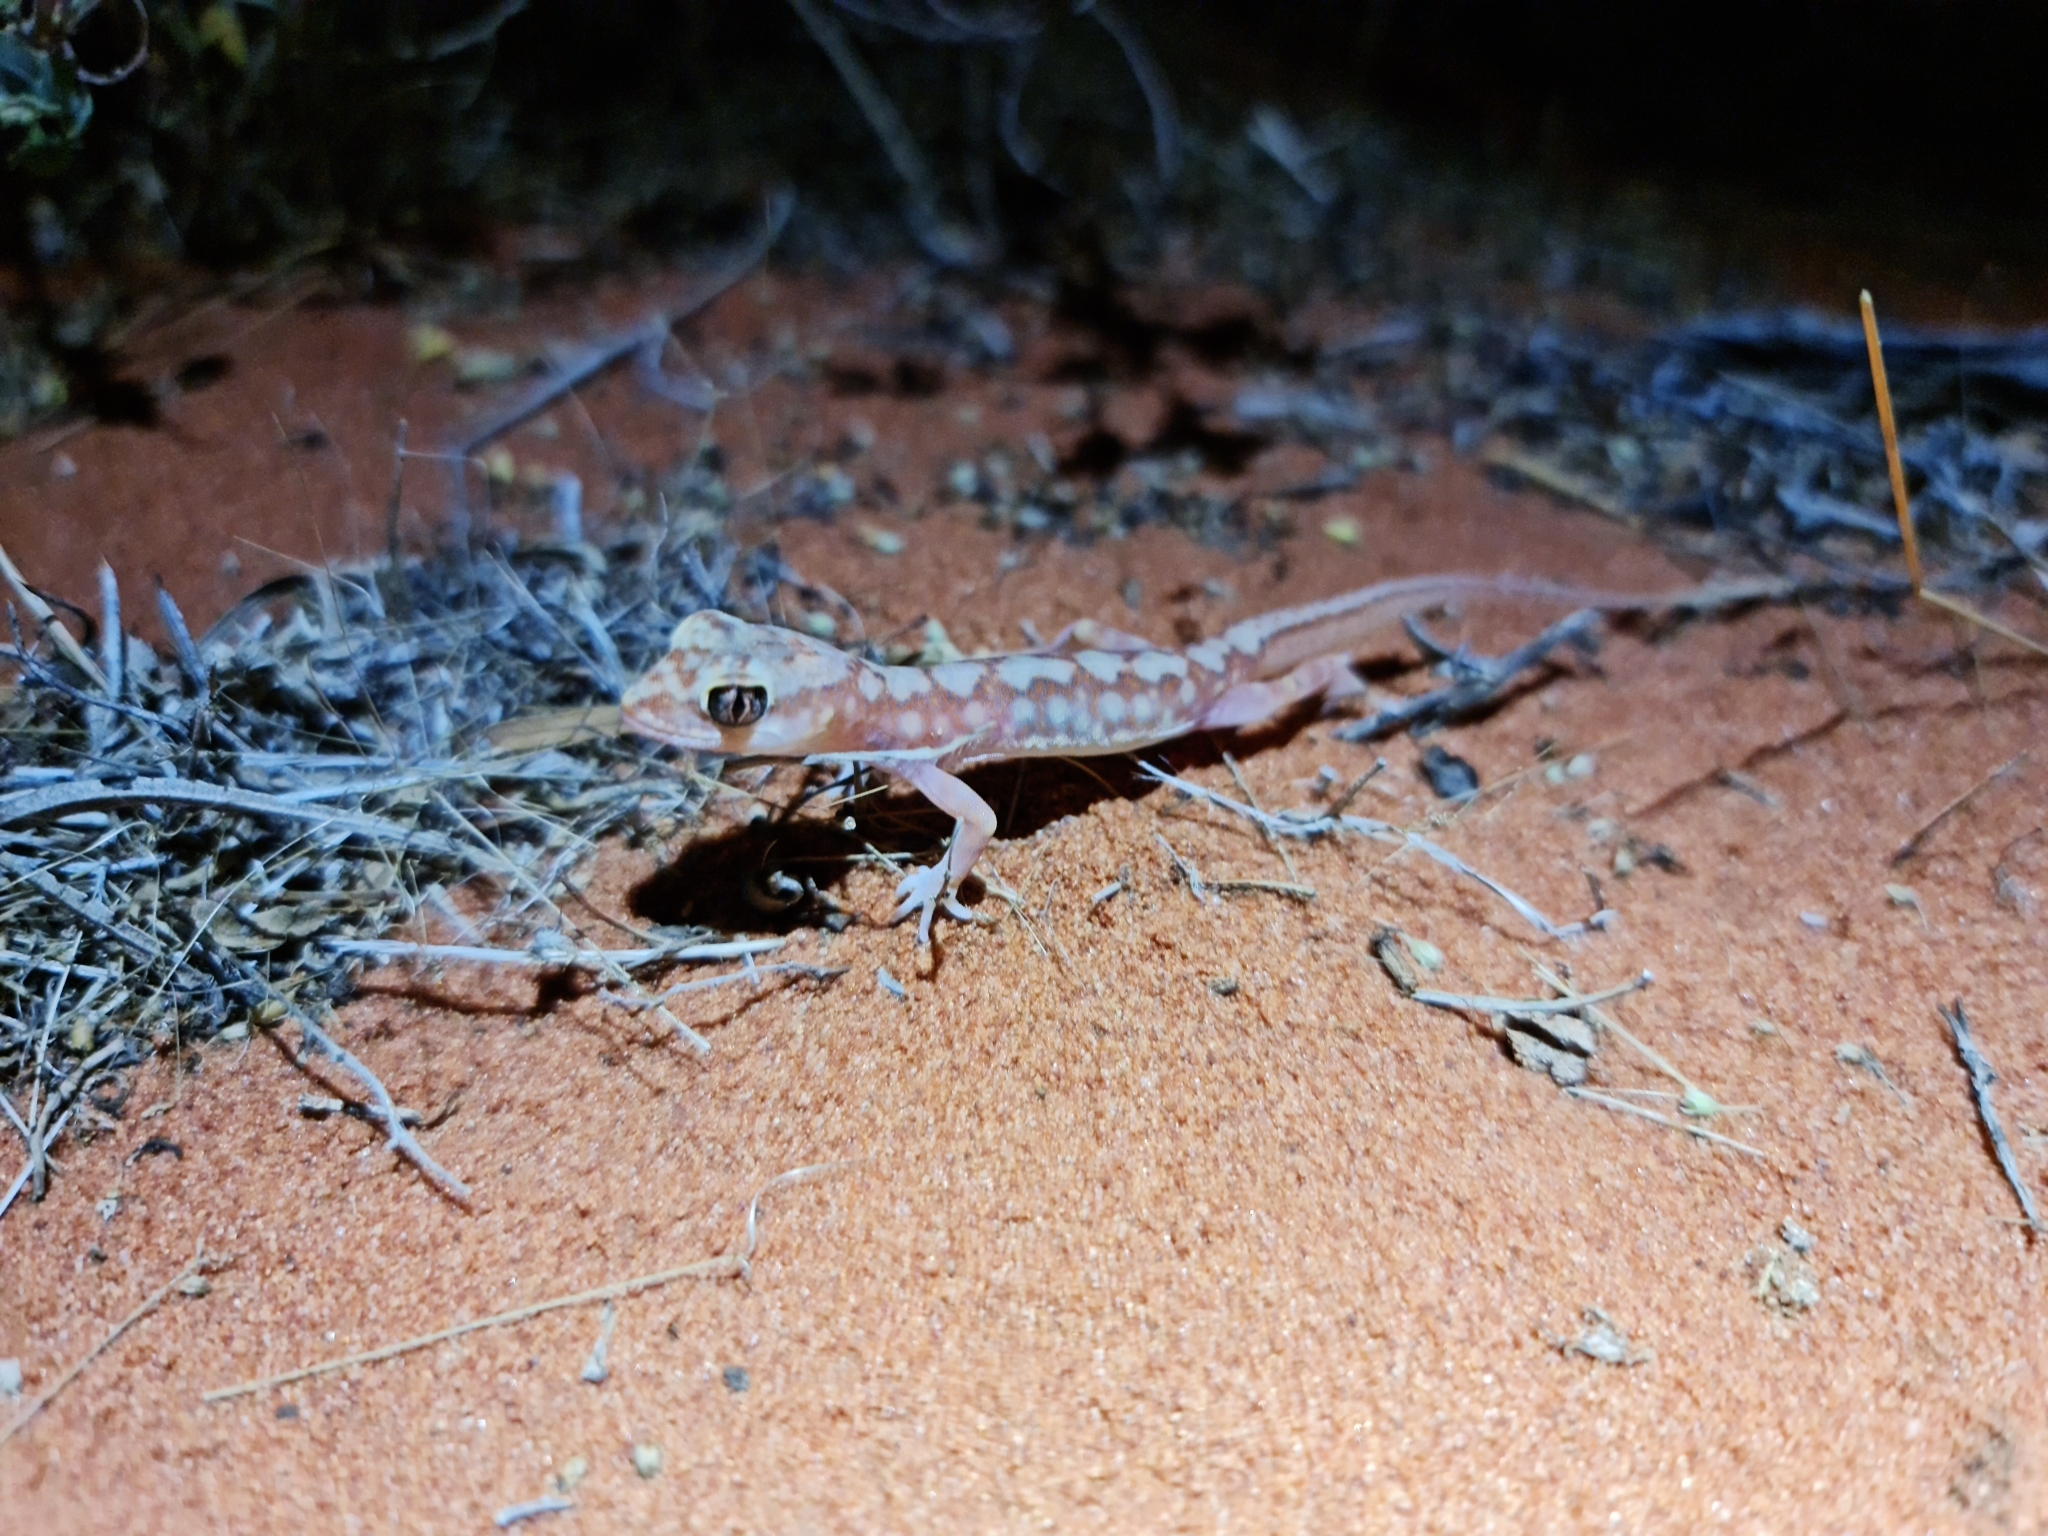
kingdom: Animalia
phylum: Chordata
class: Squamata
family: Diplodactylidae
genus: Lucasium
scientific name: Lucasium damaeum
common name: Beaded gecko
